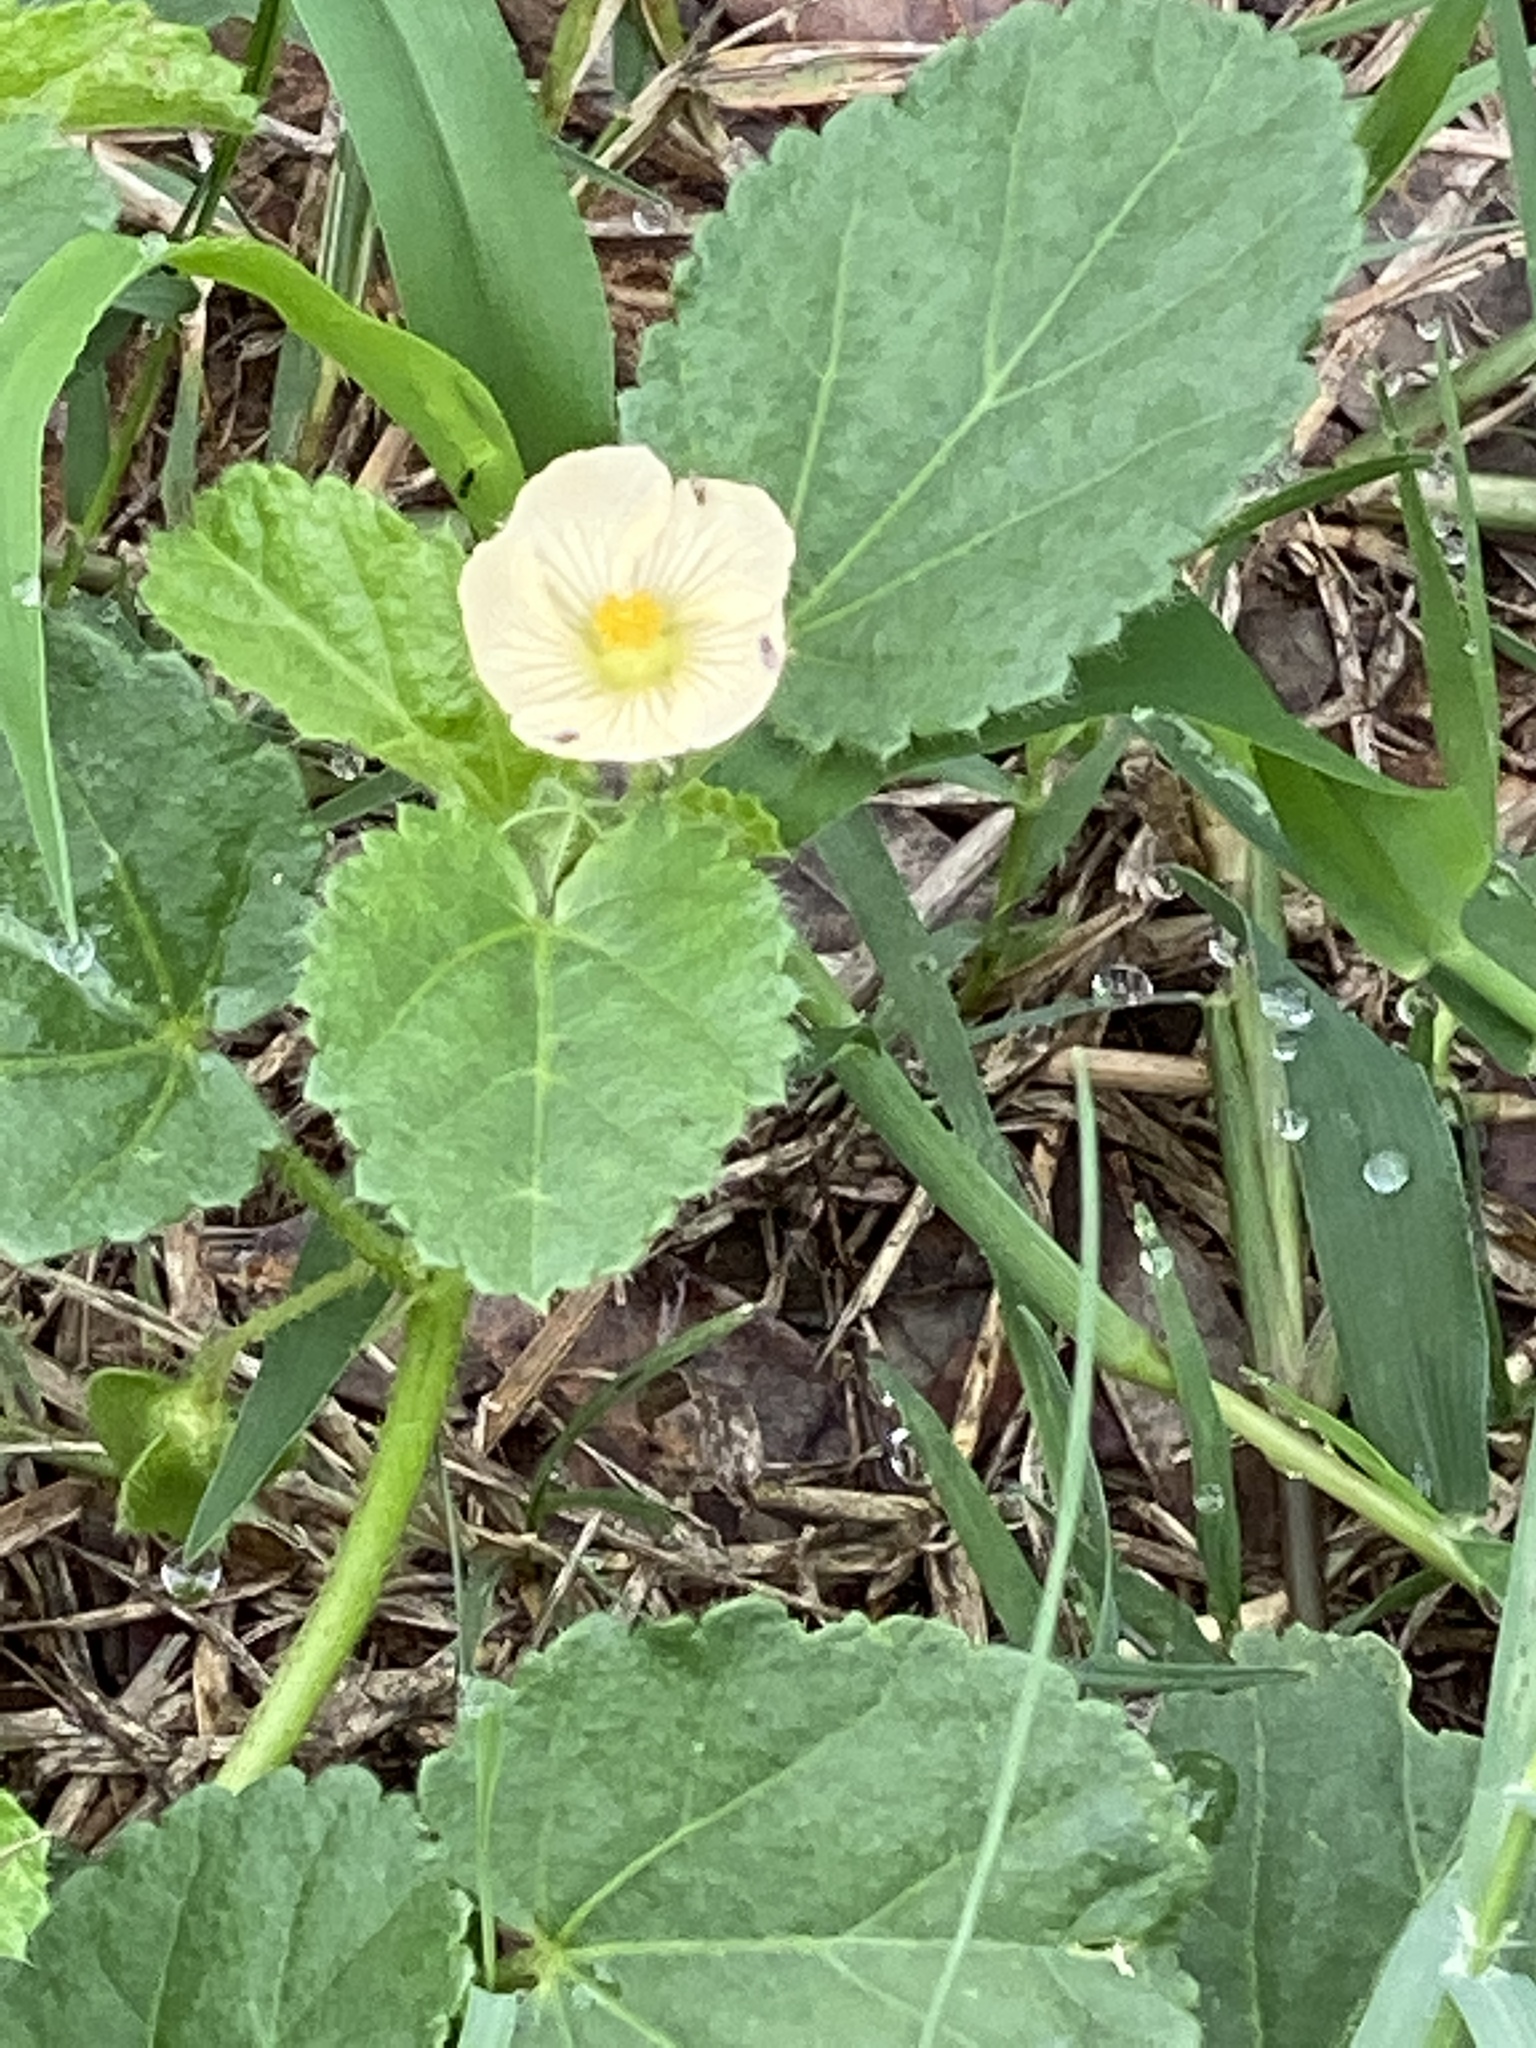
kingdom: Plantae
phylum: Tracheophyta
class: Magnoliopsida
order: Malvales
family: Malvaceae
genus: Rhynchosida
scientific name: Rhynchosida physocalyx
